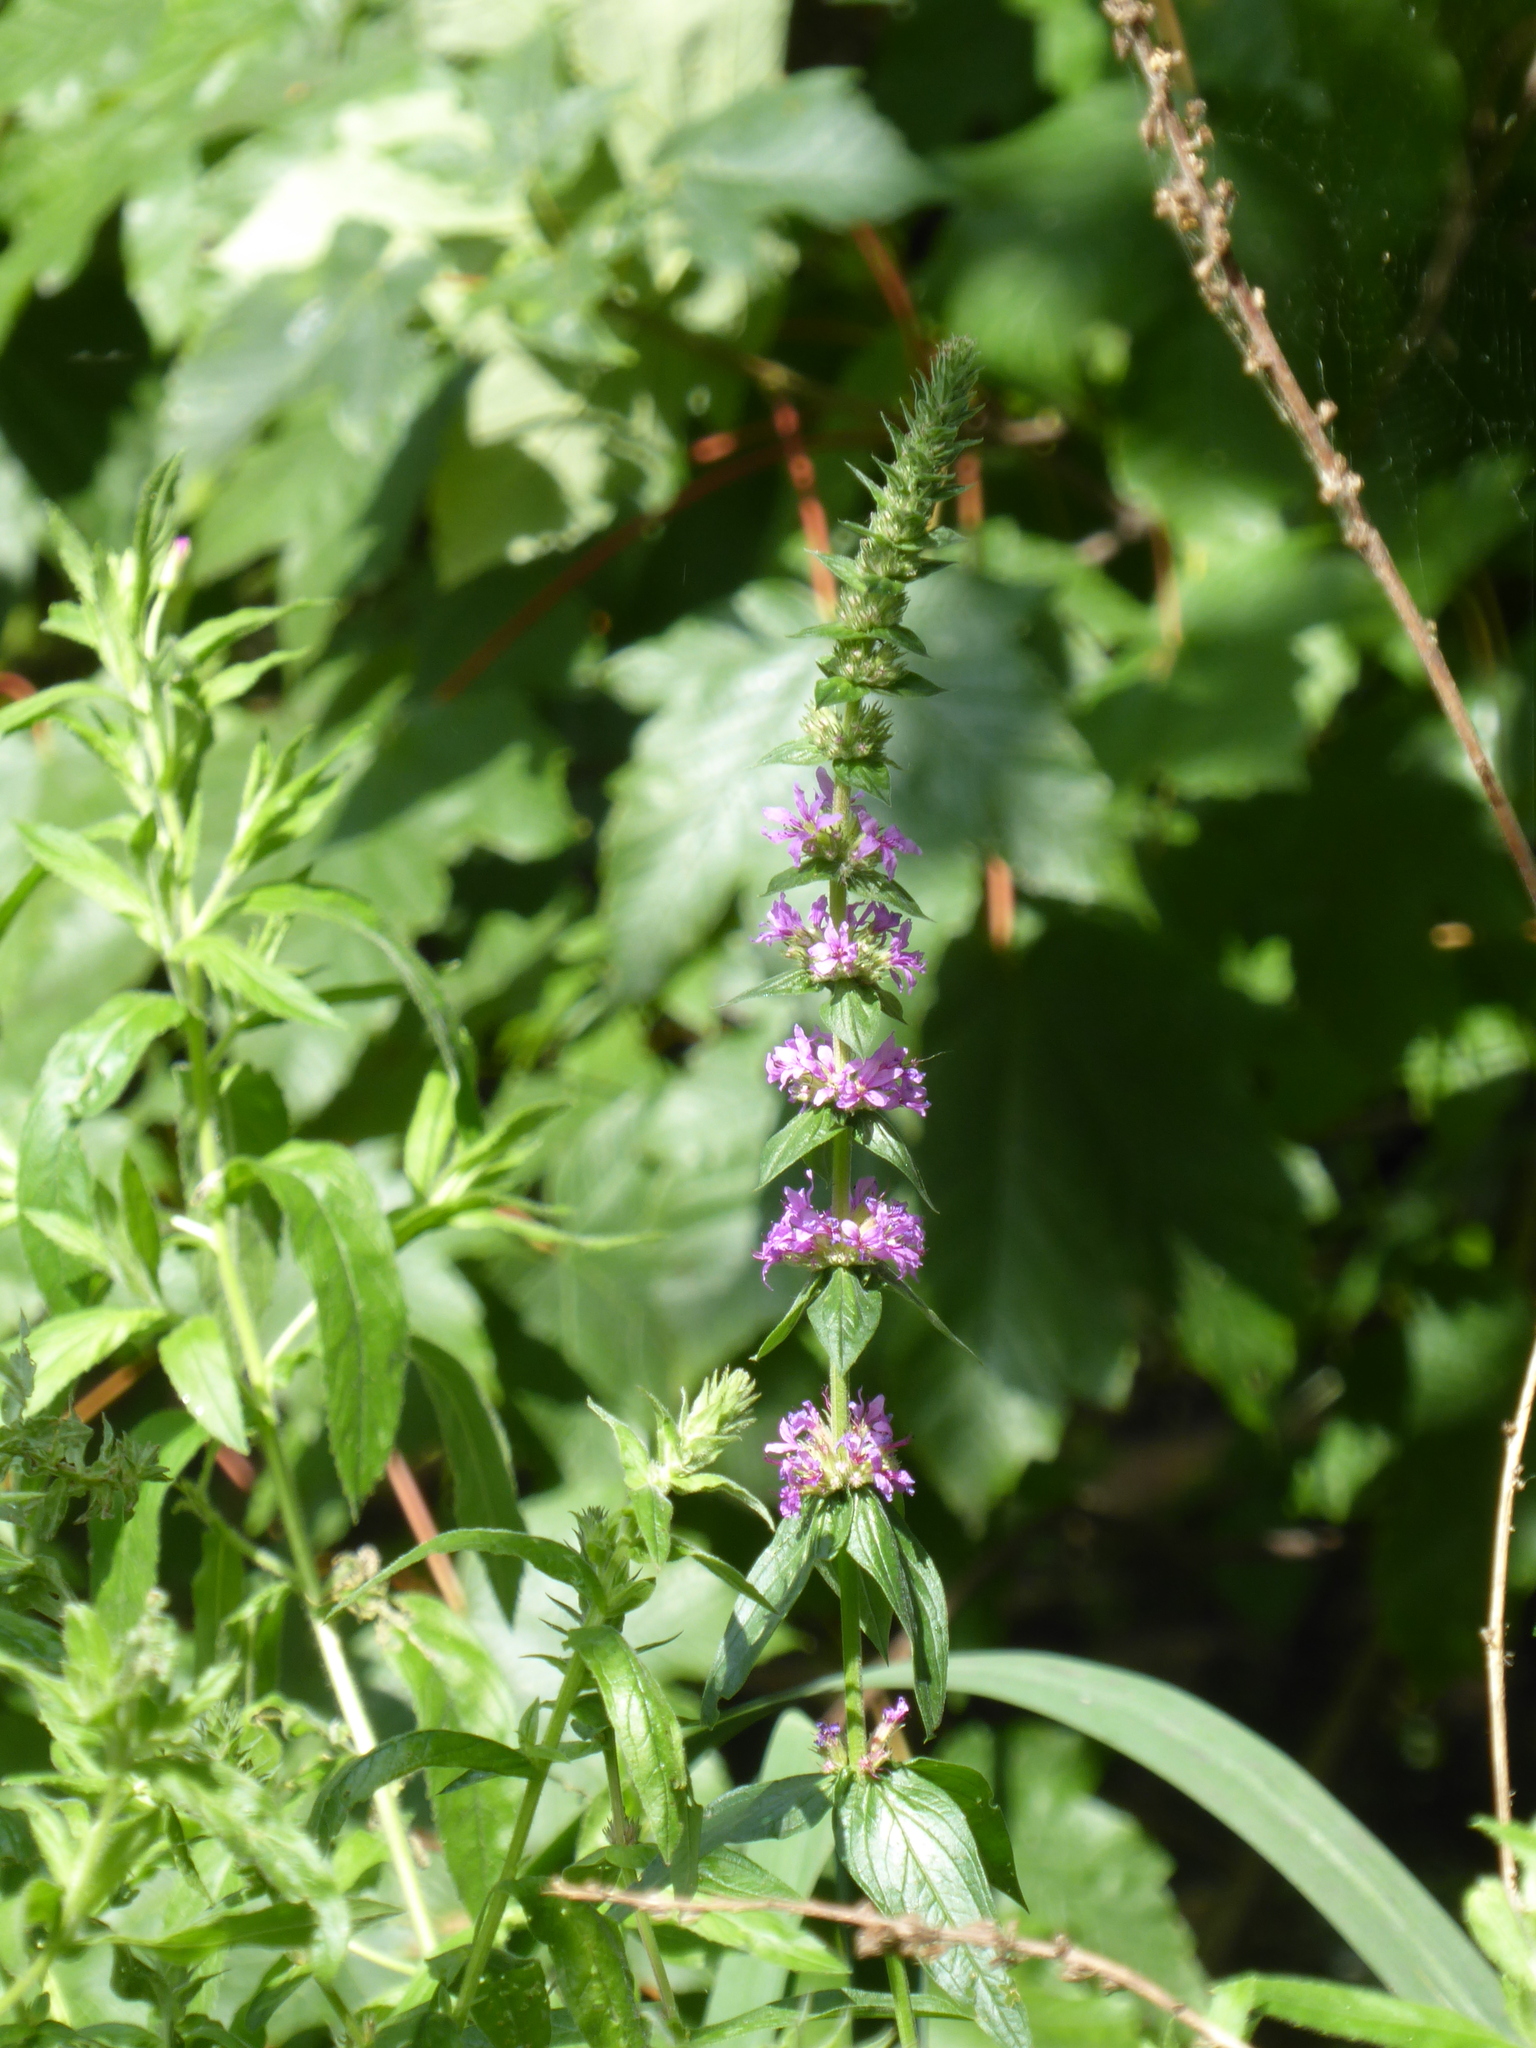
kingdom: Plantae
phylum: Tracheophyta
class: Magnoliopsida
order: Myrtales
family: Lythraceae
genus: Lythrum
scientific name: Lythrum salicaria
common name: Purple loosestrife
